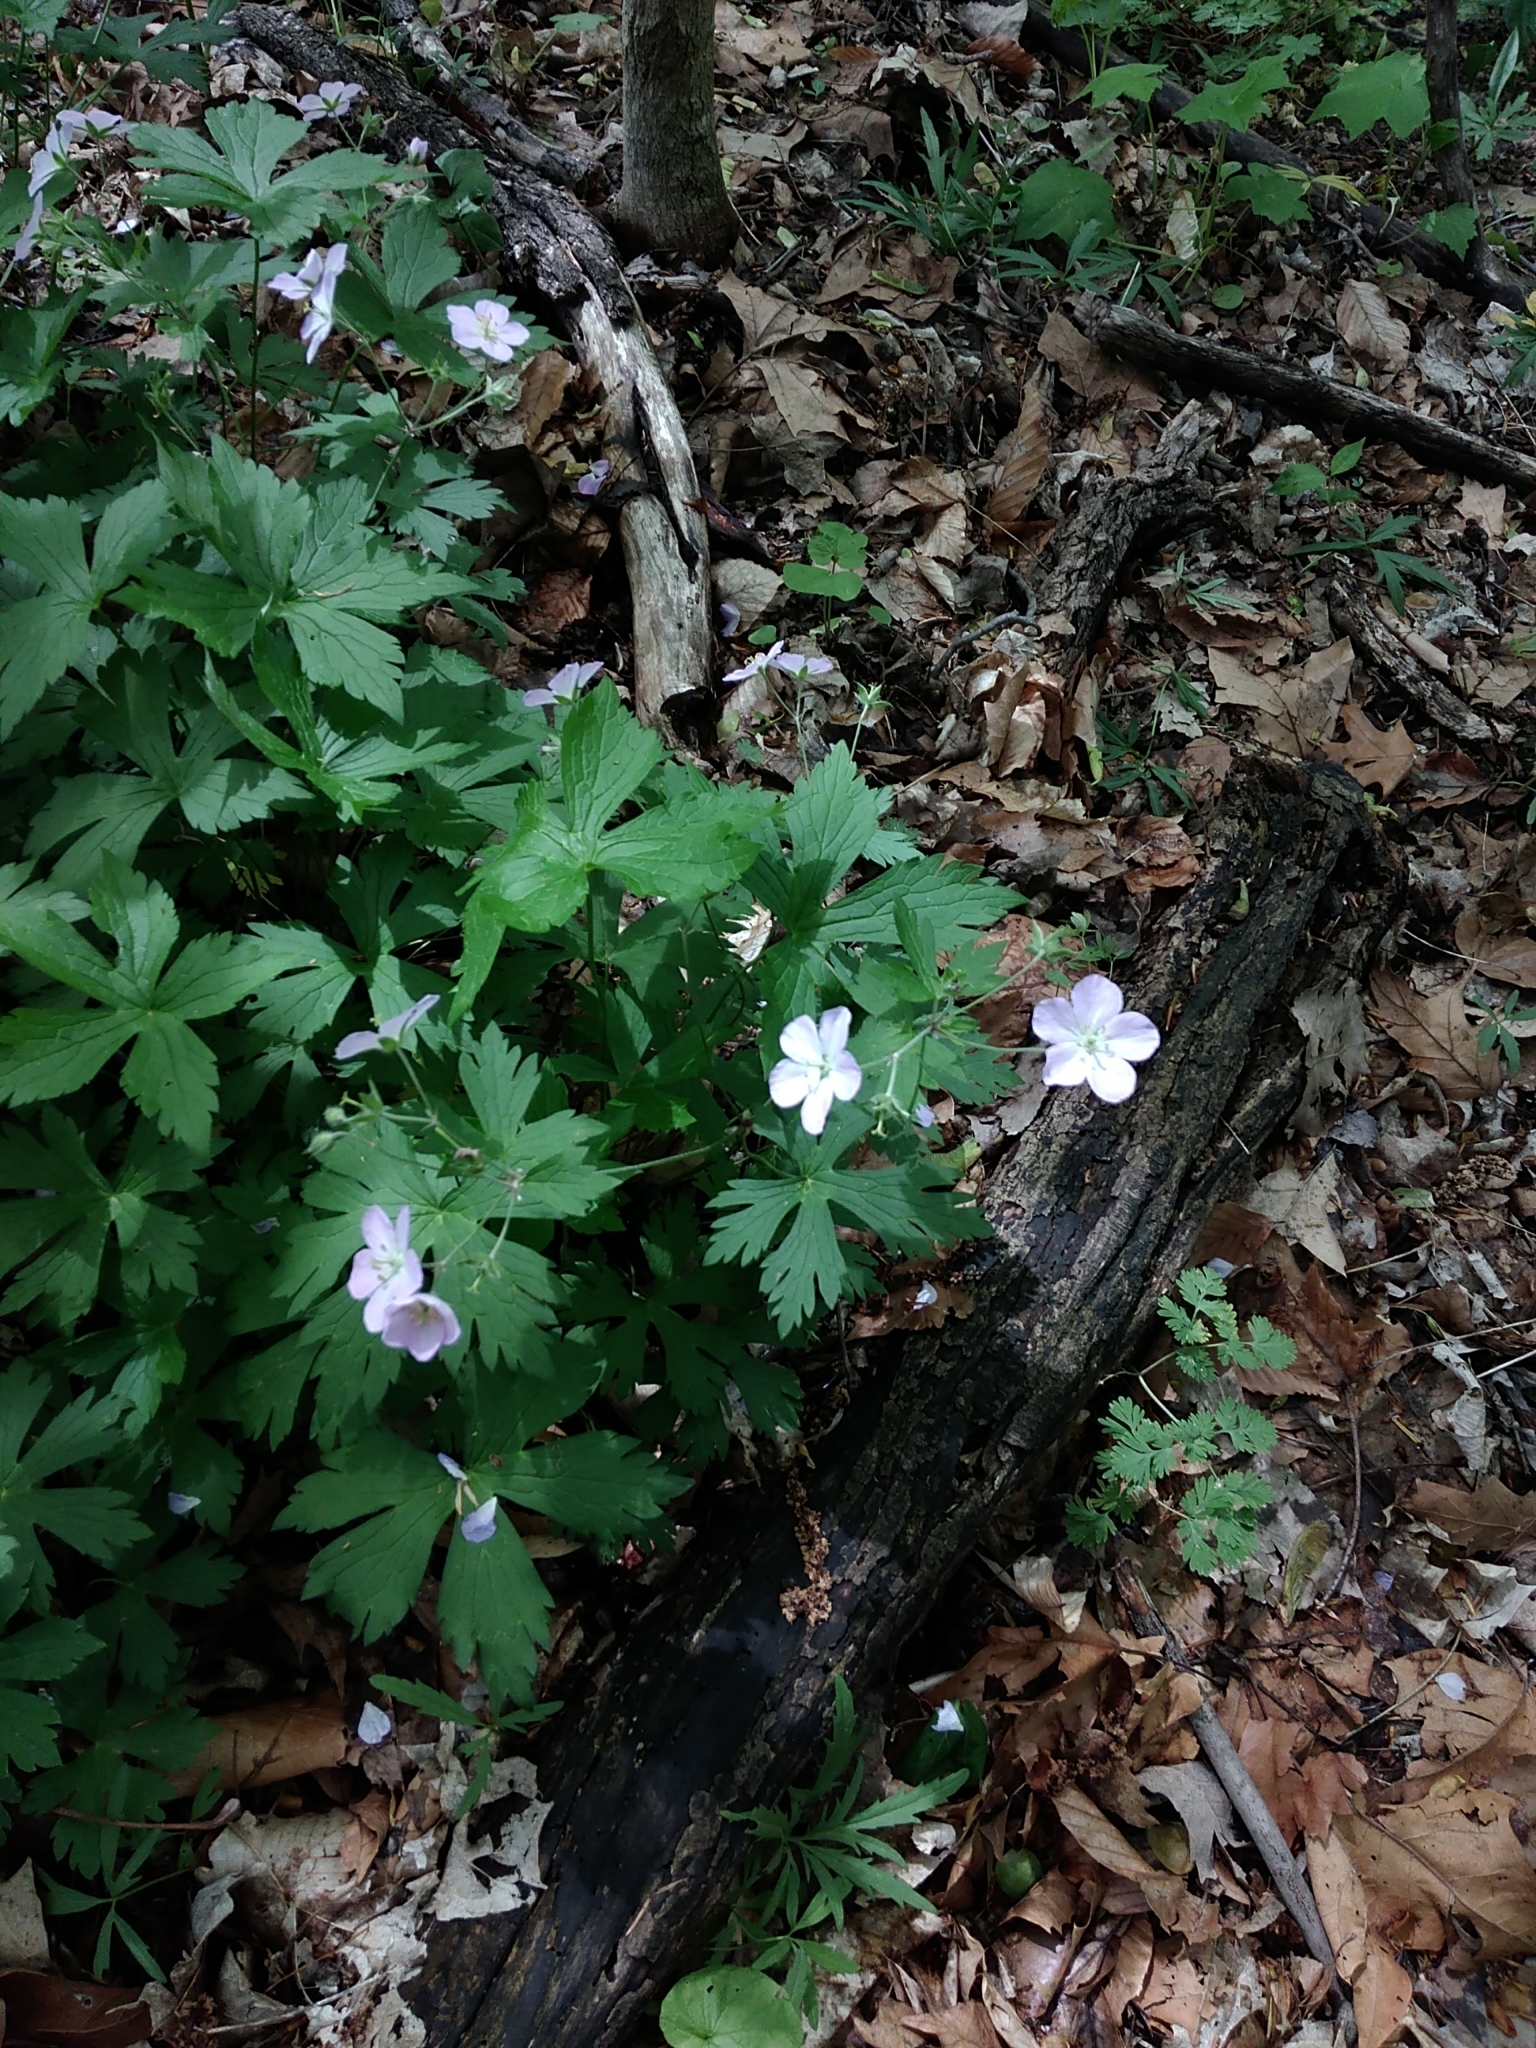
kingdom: Plantae
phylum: Tracheophyta
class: Magnoliopsida
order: Geraniales
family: Geraniaceae
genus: Geranium
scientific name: Geranium maculatum
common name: Spotted geranium
